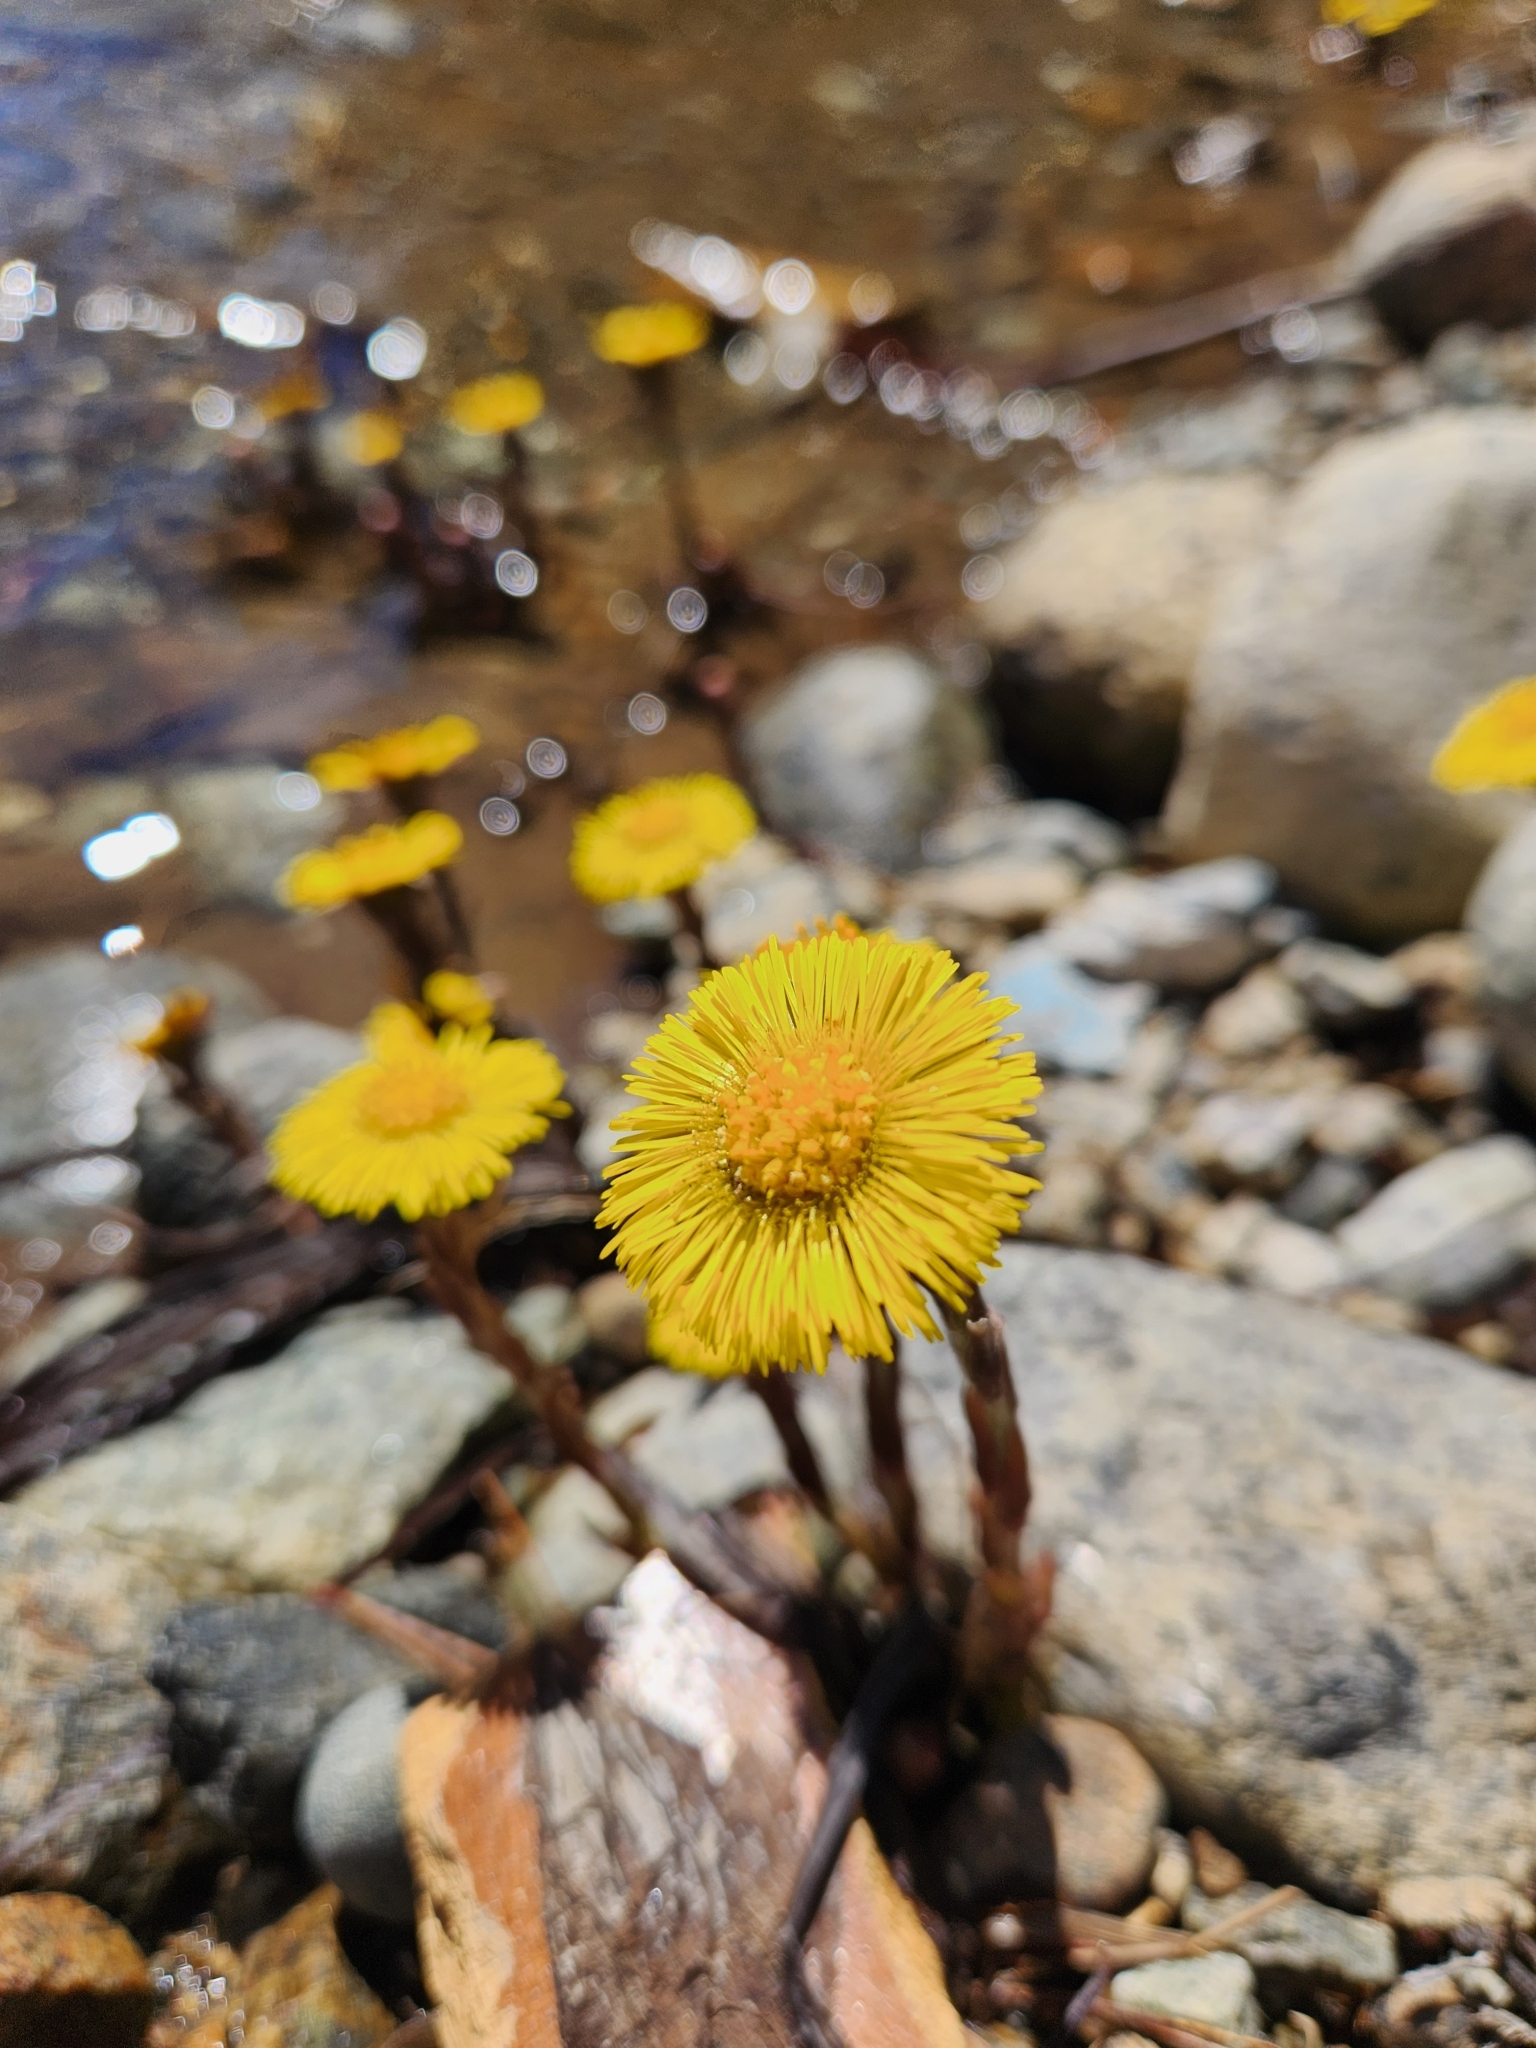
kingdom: Plantae
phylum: Tracheophyta
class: Magnoliopsida
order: Asterales
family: Asteraceae
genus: Tussilago
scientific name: Tussilago farfara
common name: Coltsfoot
